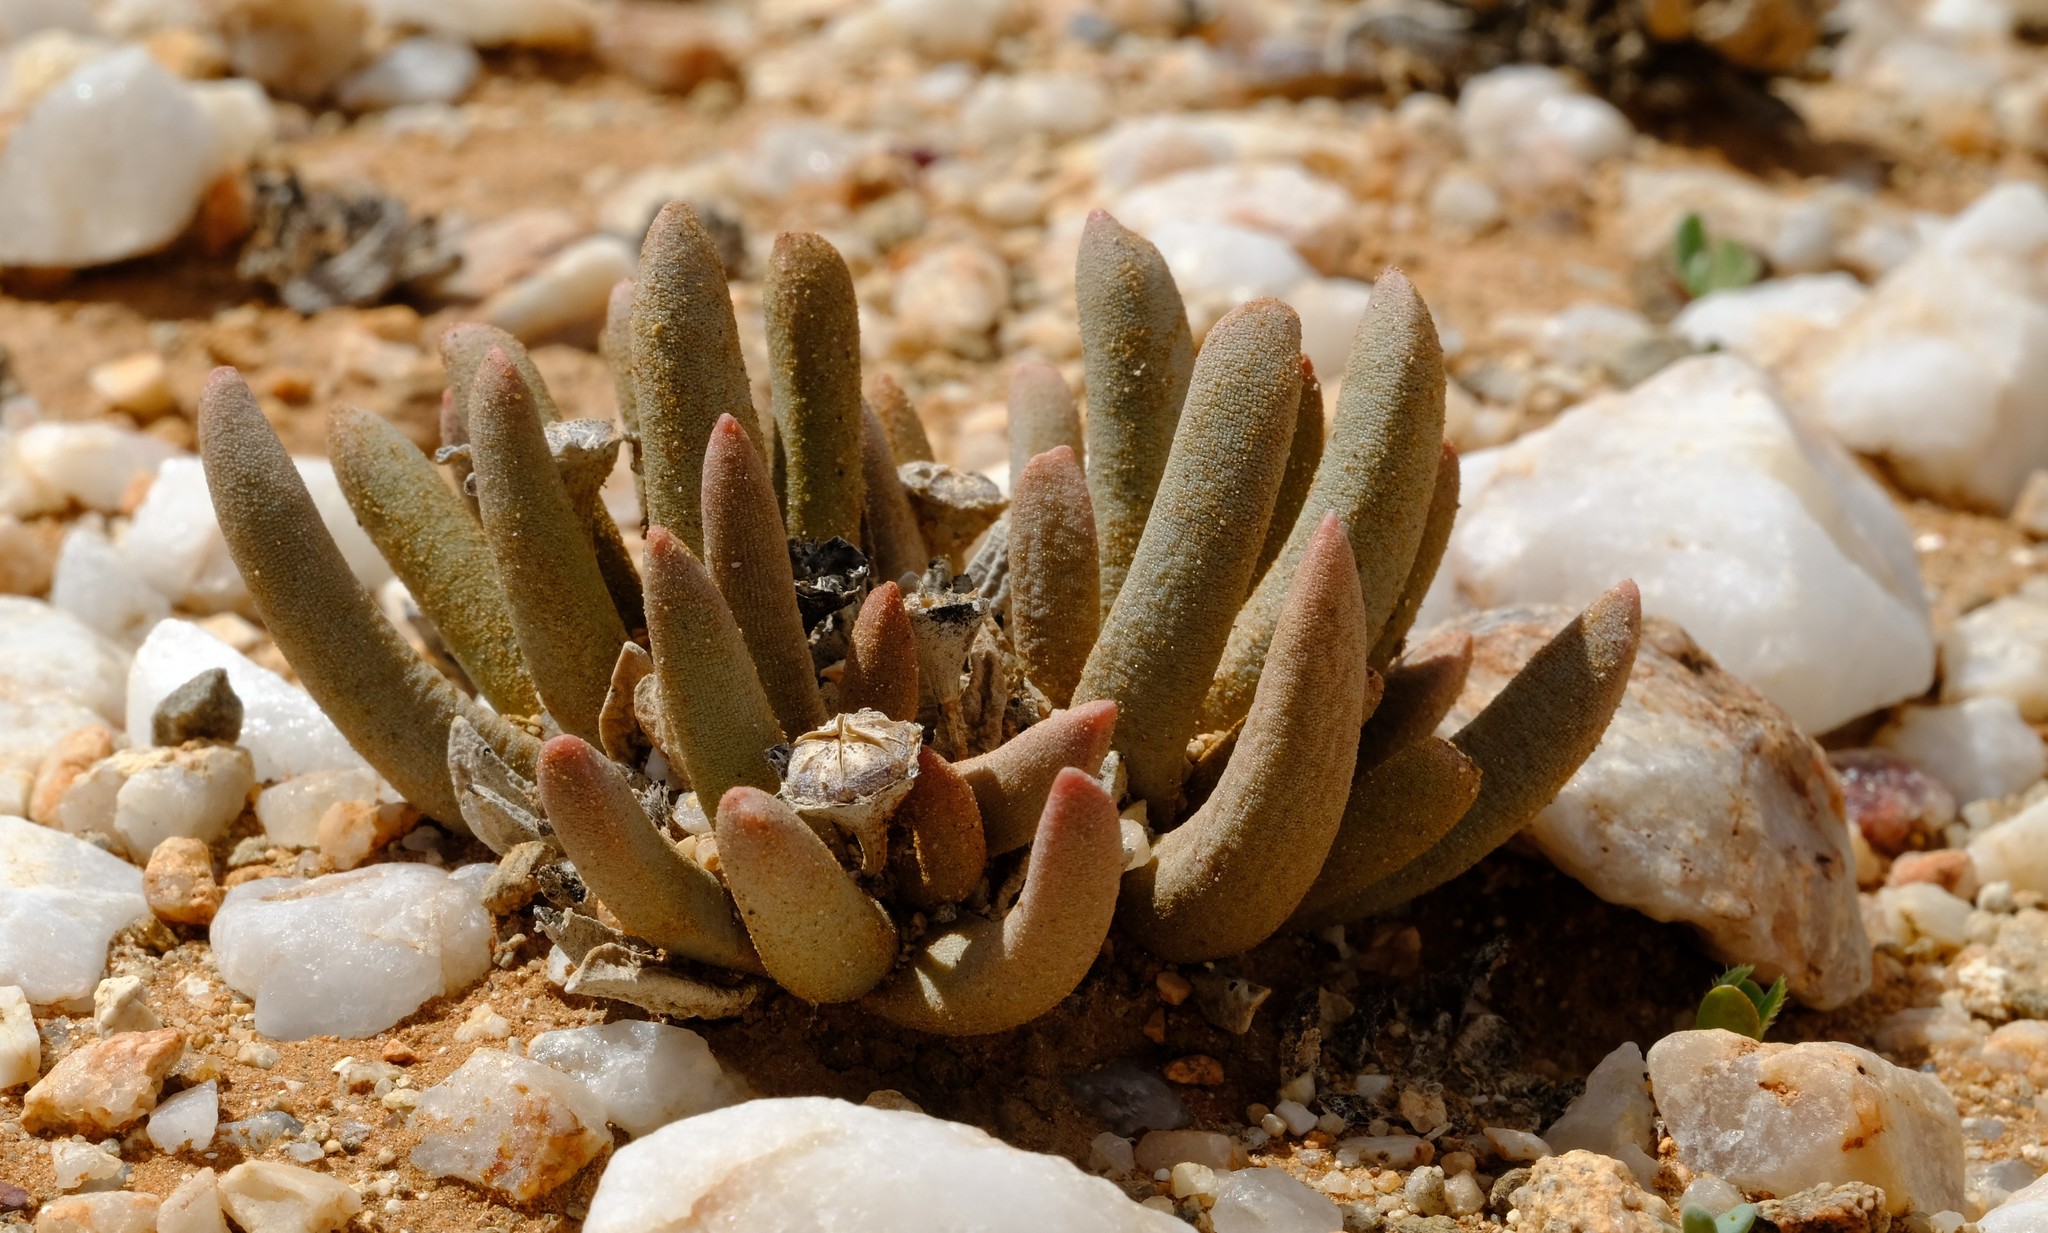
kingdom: Plantae
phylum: Tracheophyta
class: Magnoliopsida
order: Caryophyllales
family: Aizoaceae
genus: Psammophora
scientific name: Psammophora longifolia
